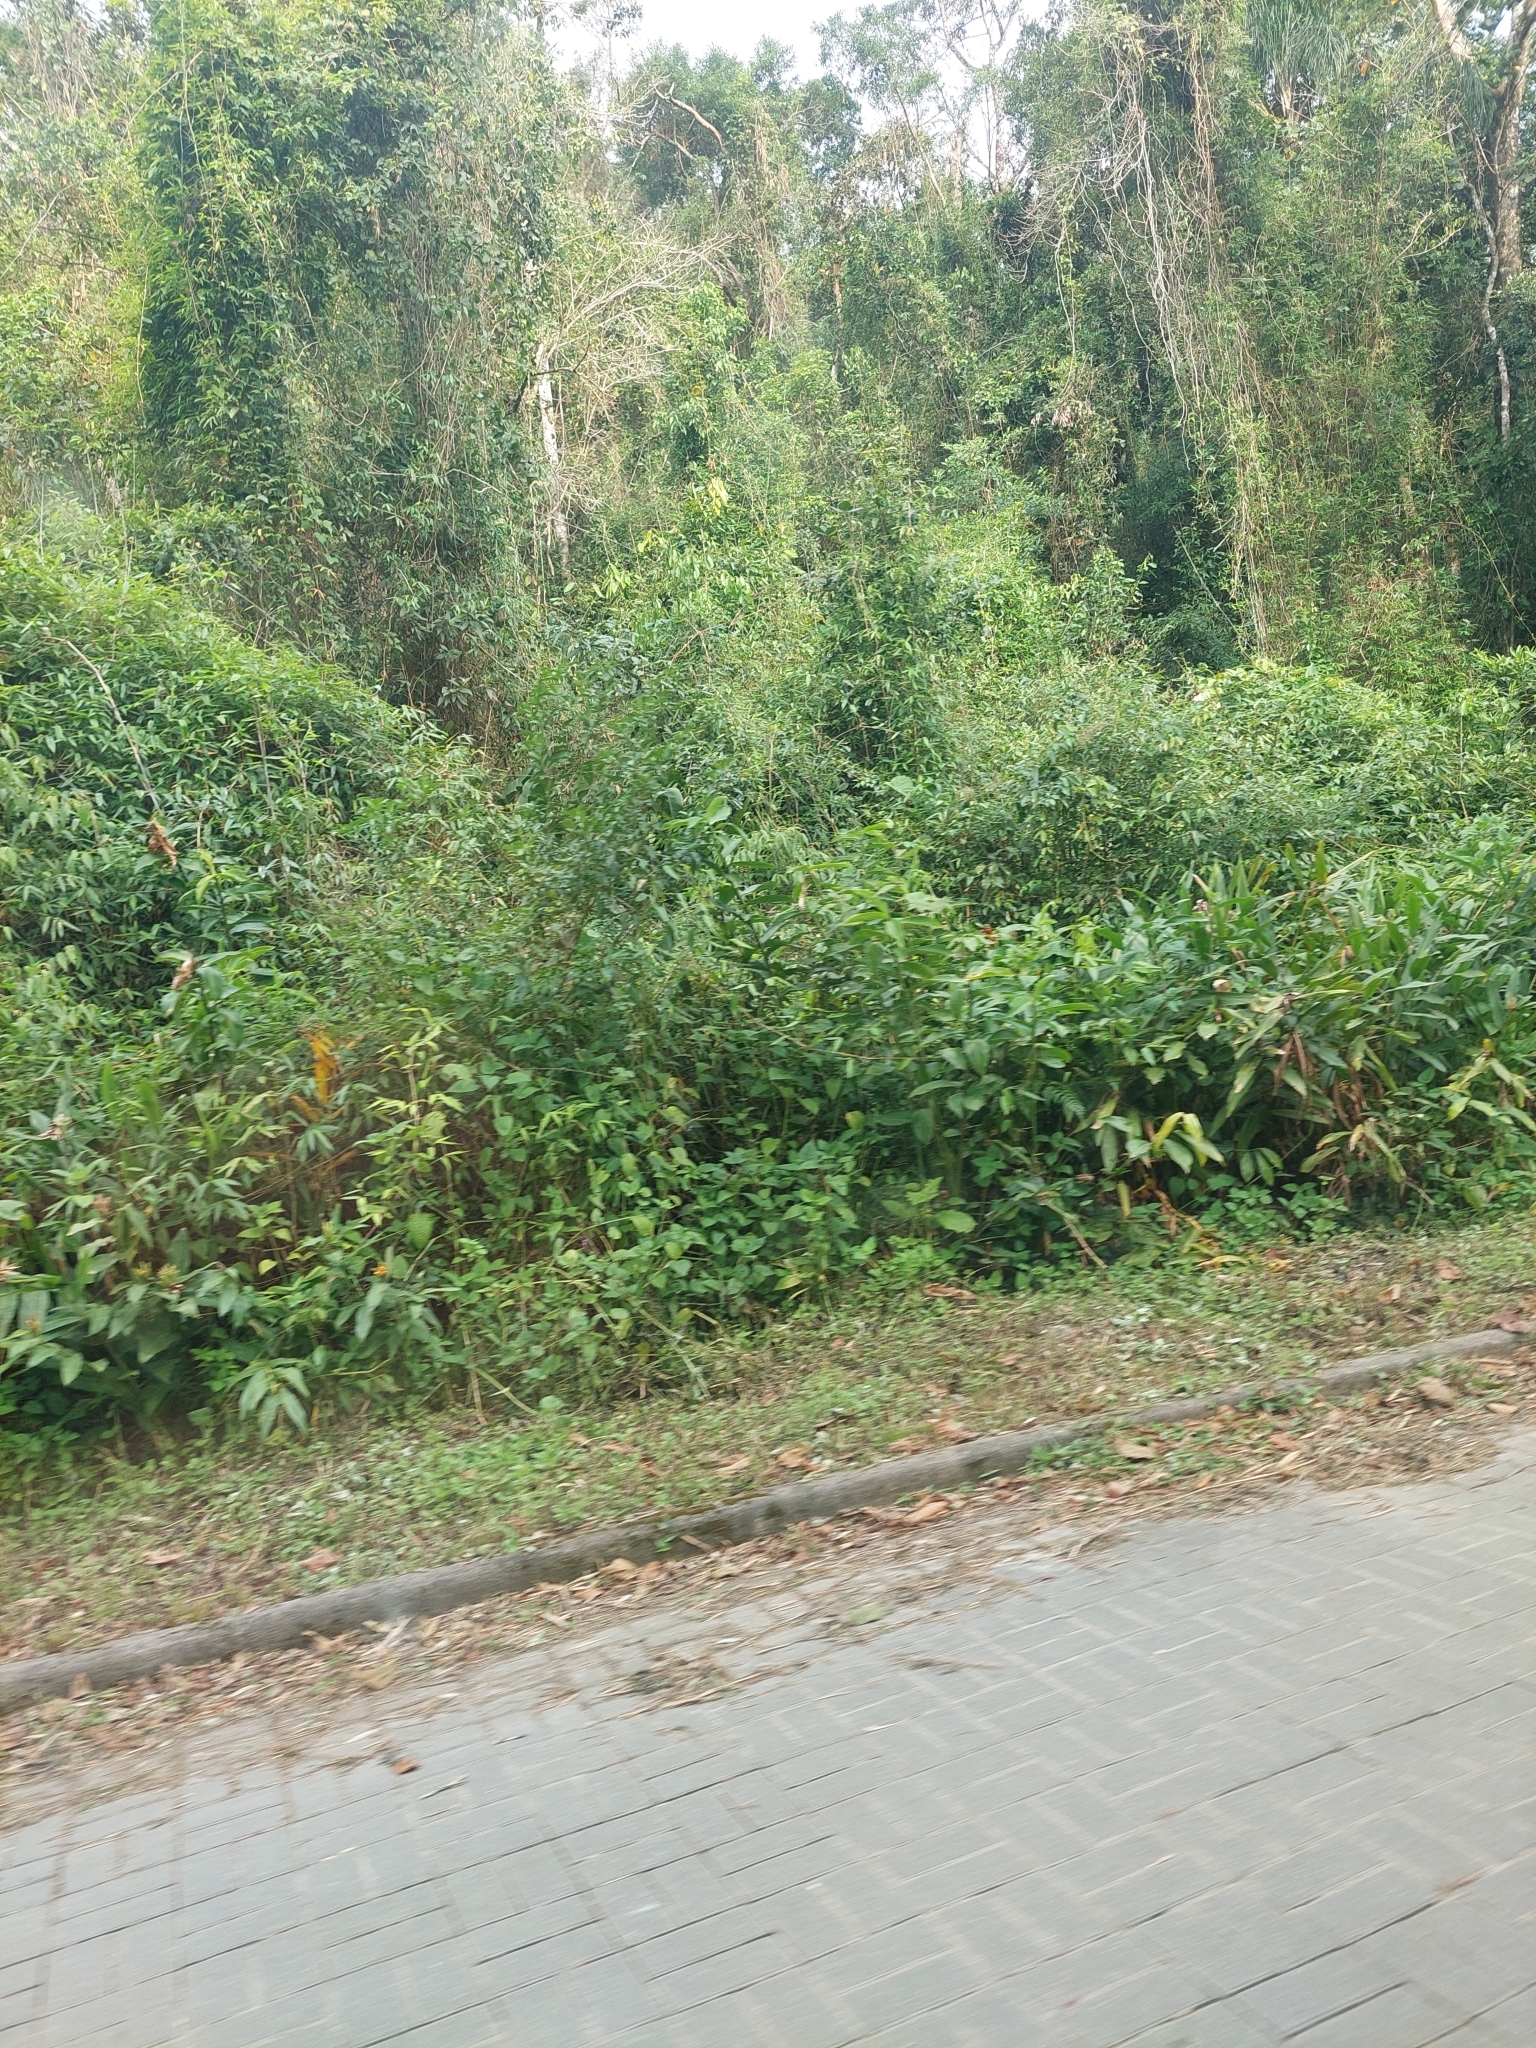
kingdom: Plantae
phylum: Tracheophyta
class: Liliopsida
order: Zingiberales
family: Zingiberaceae
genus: Hedychium
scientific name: Hedychium coronarium
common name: White garland-lily
